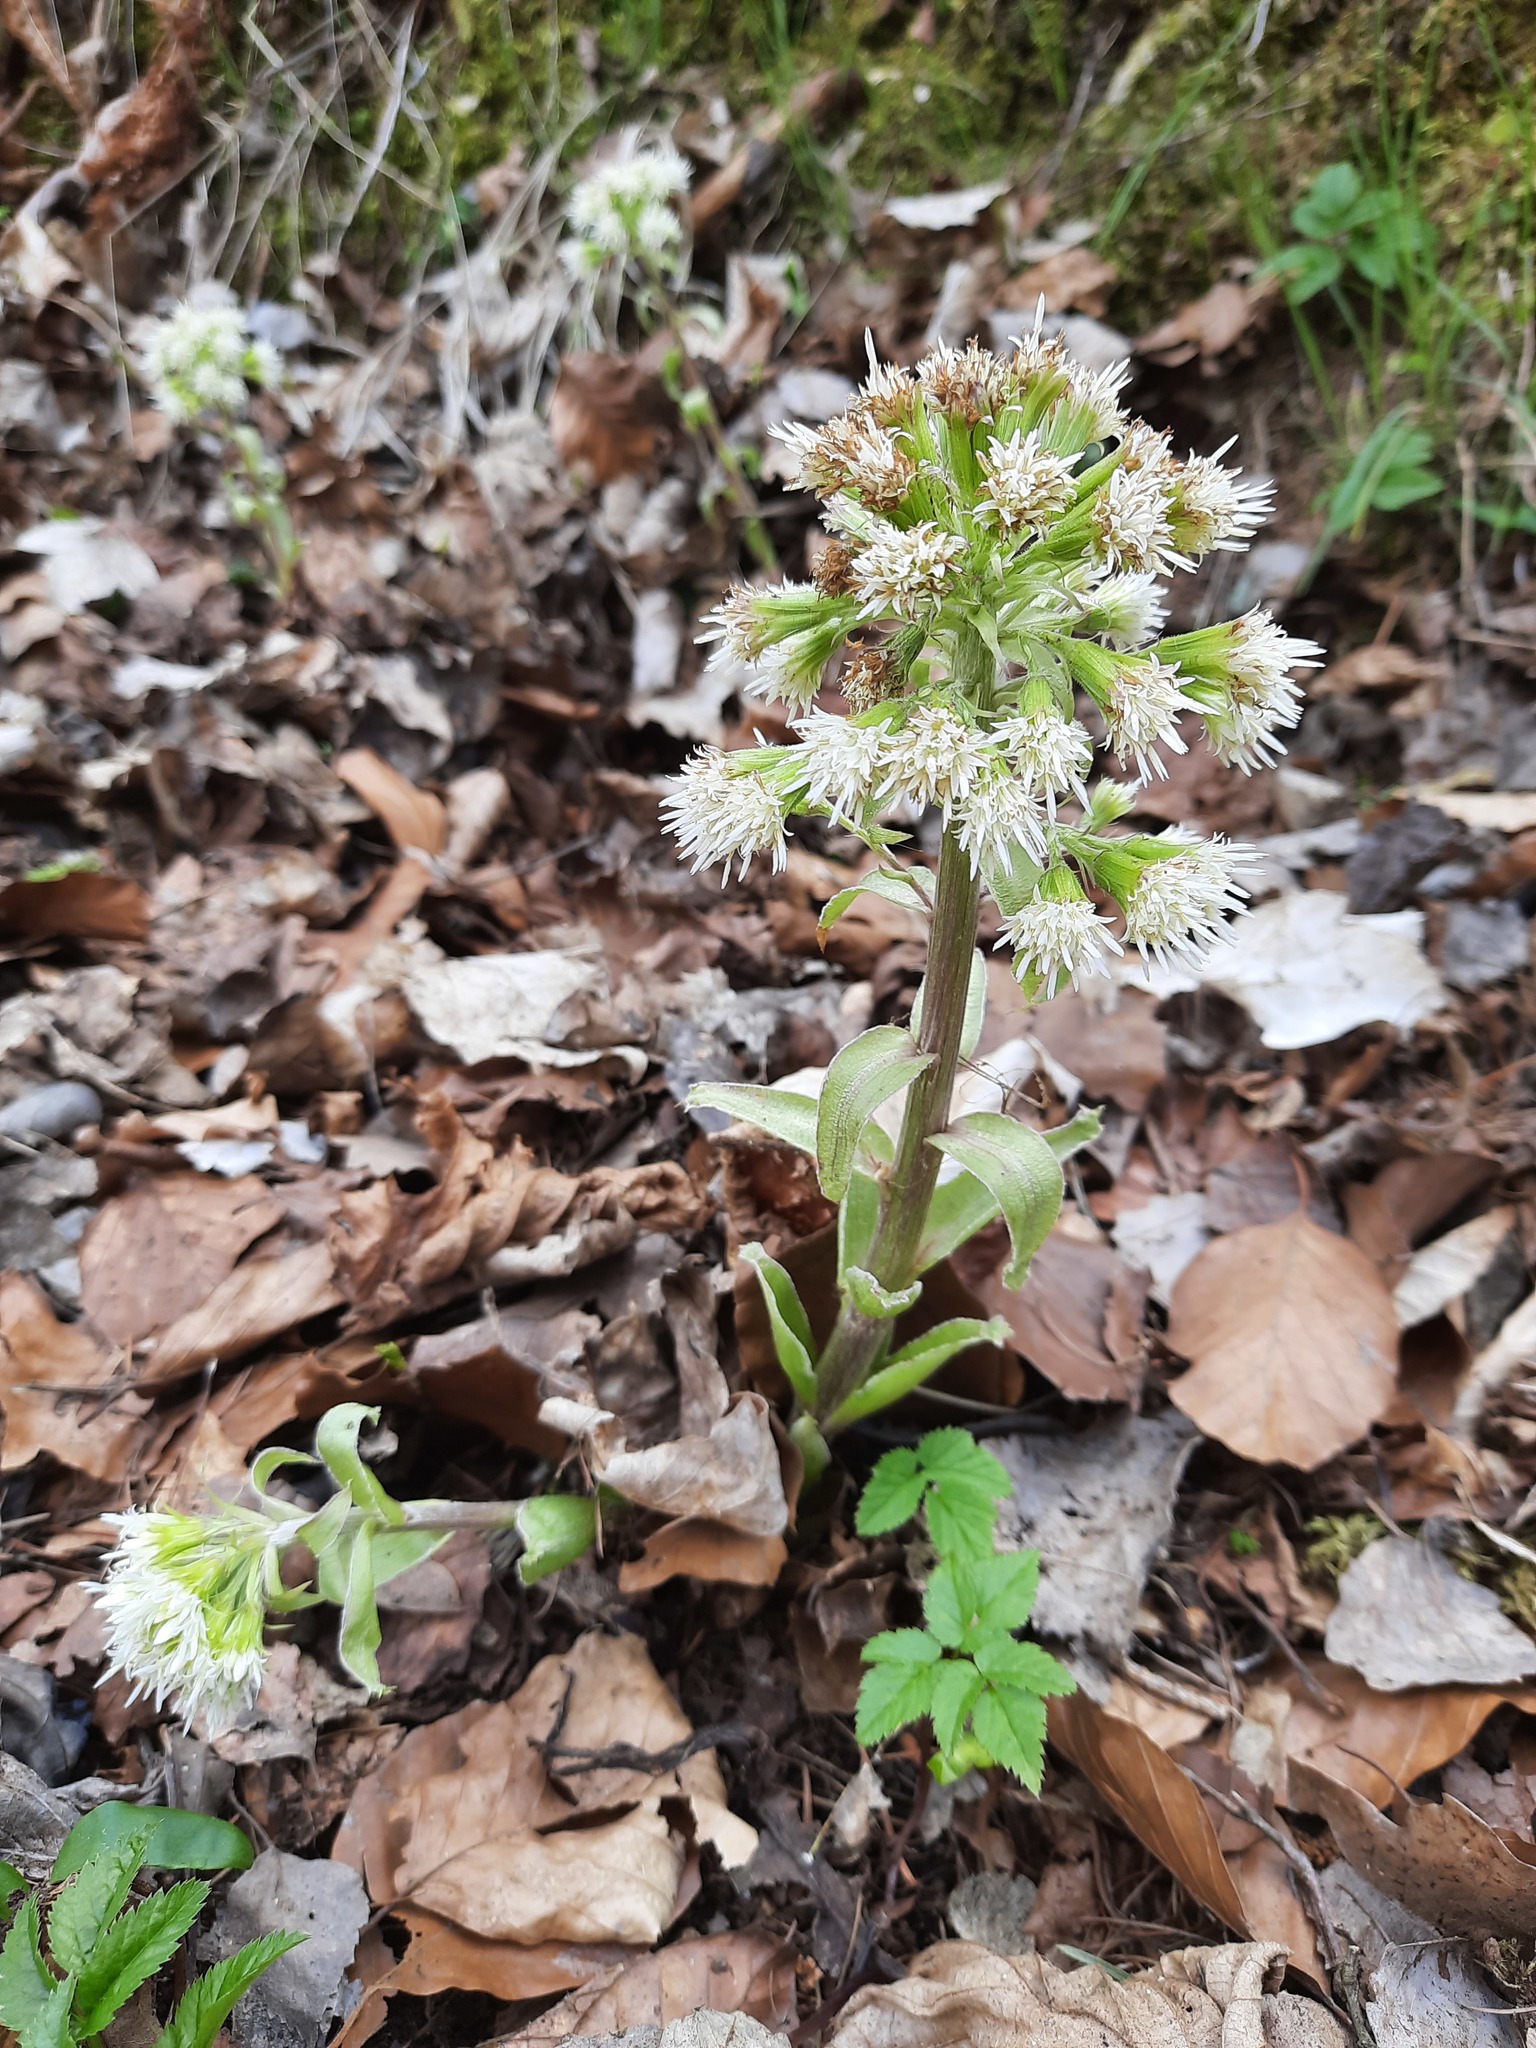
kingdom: Plantae
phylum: Tracheophyta
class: Magnoliopsida
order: Asterales
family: Asteraceae
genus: Petasites
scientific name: Petasites albus
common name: White butterbur
